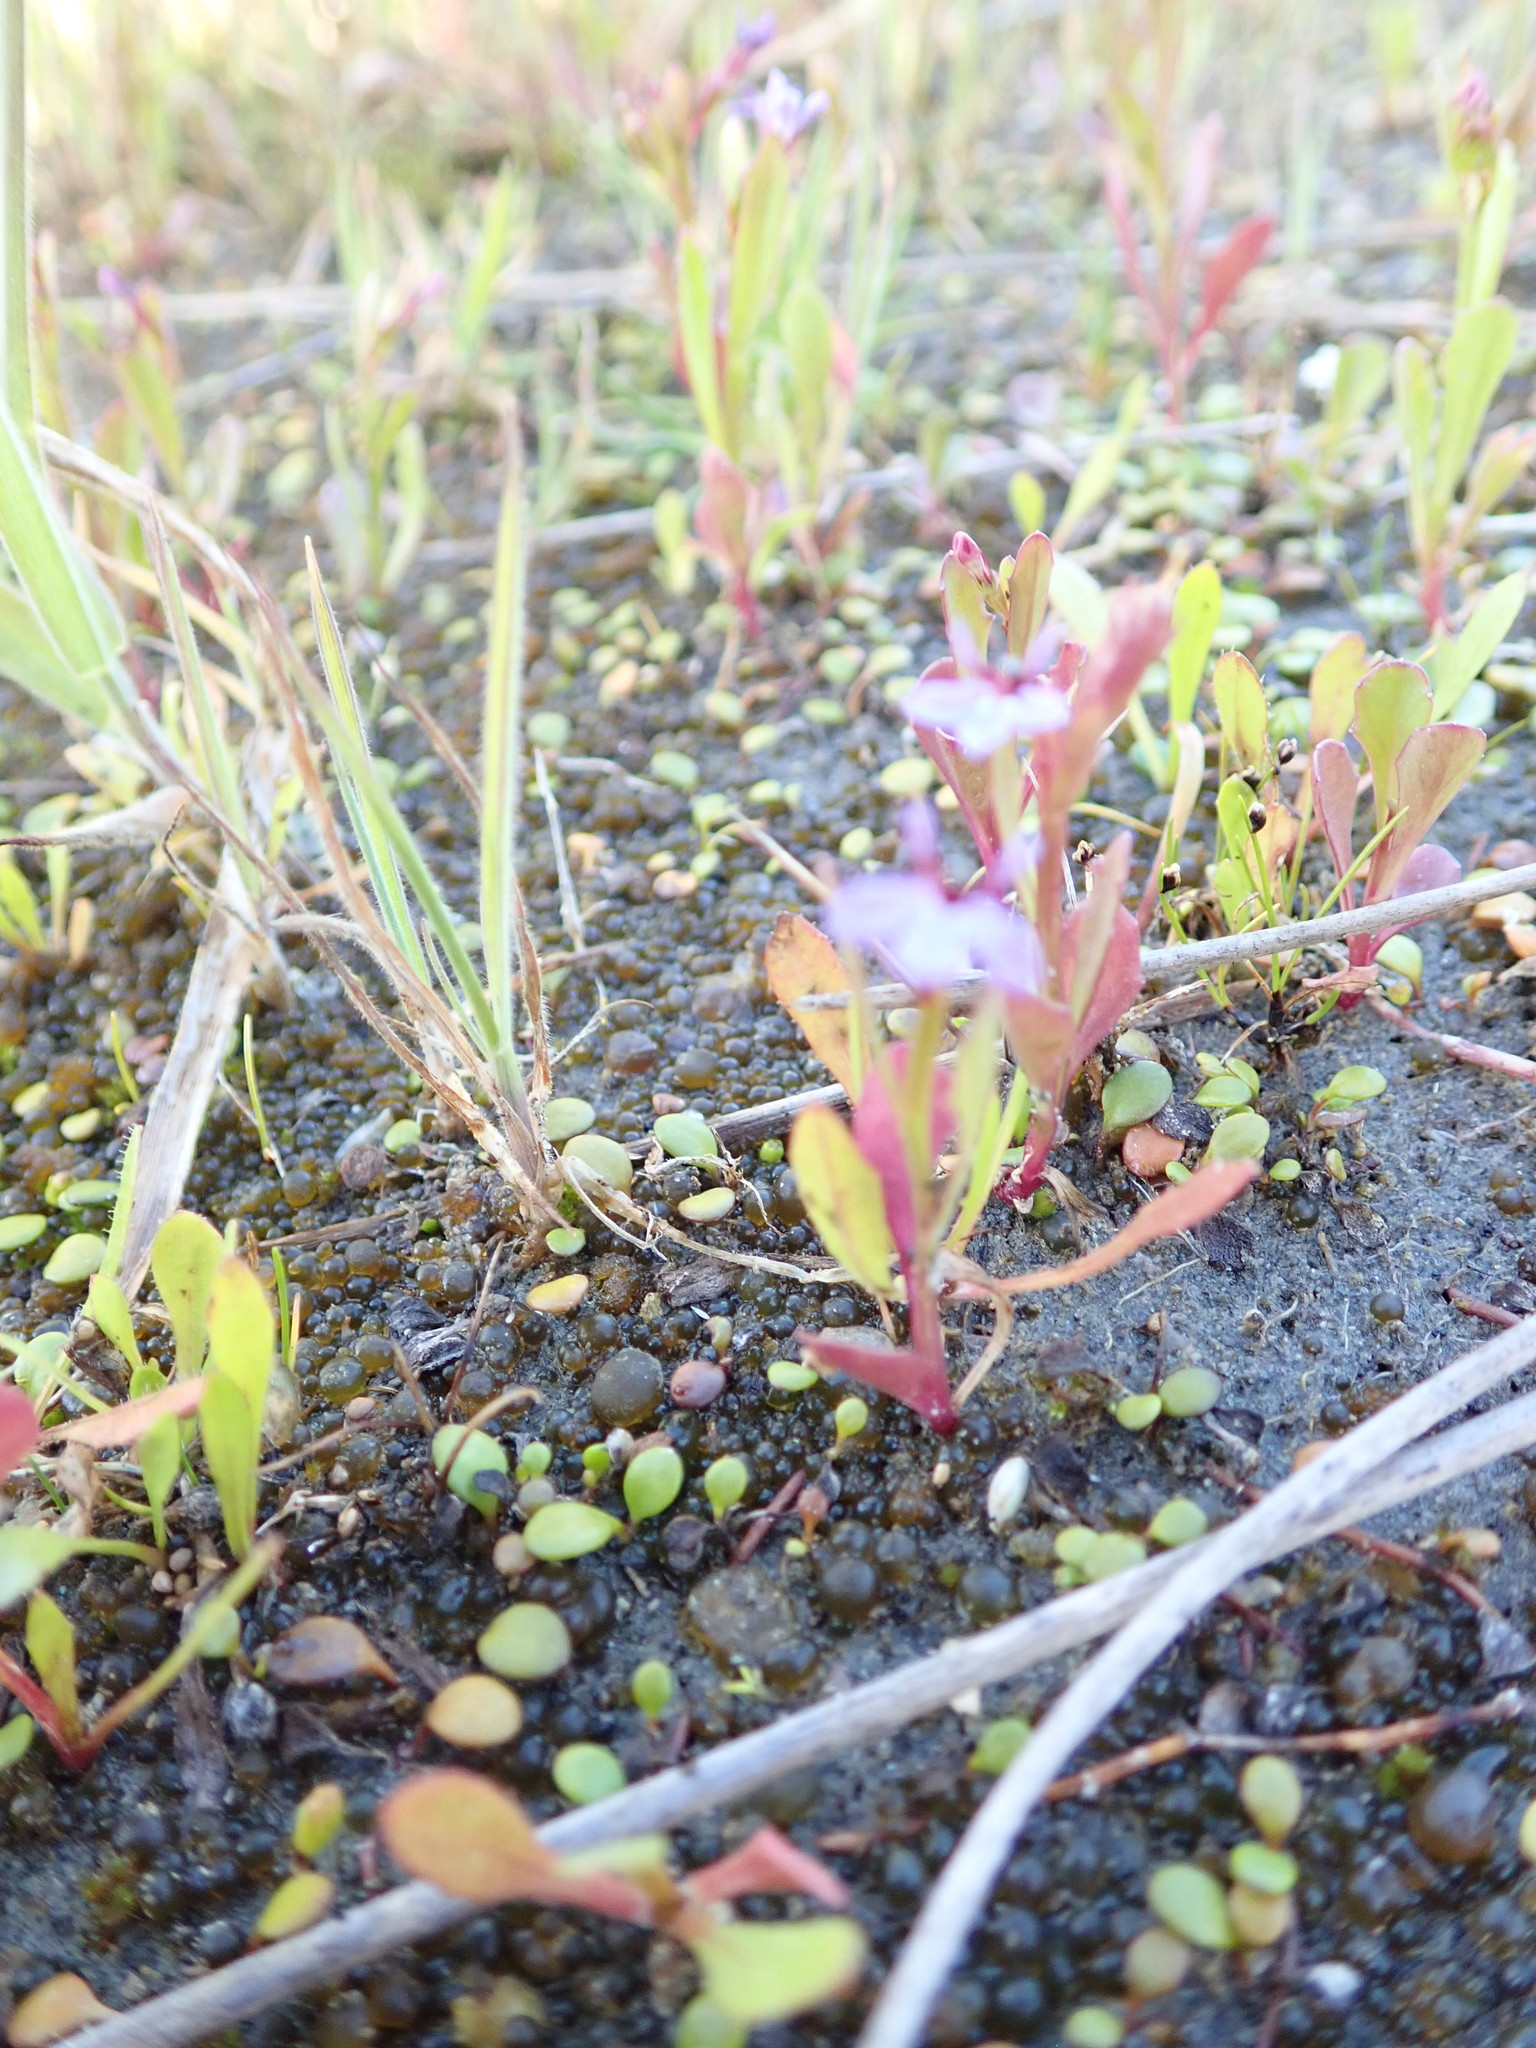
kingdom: Plantae
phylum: Tracheophyta
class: Magnoliopsida
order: Asterales
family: Campanulaceae
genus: Lobelia
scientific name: Lobelia anceps
